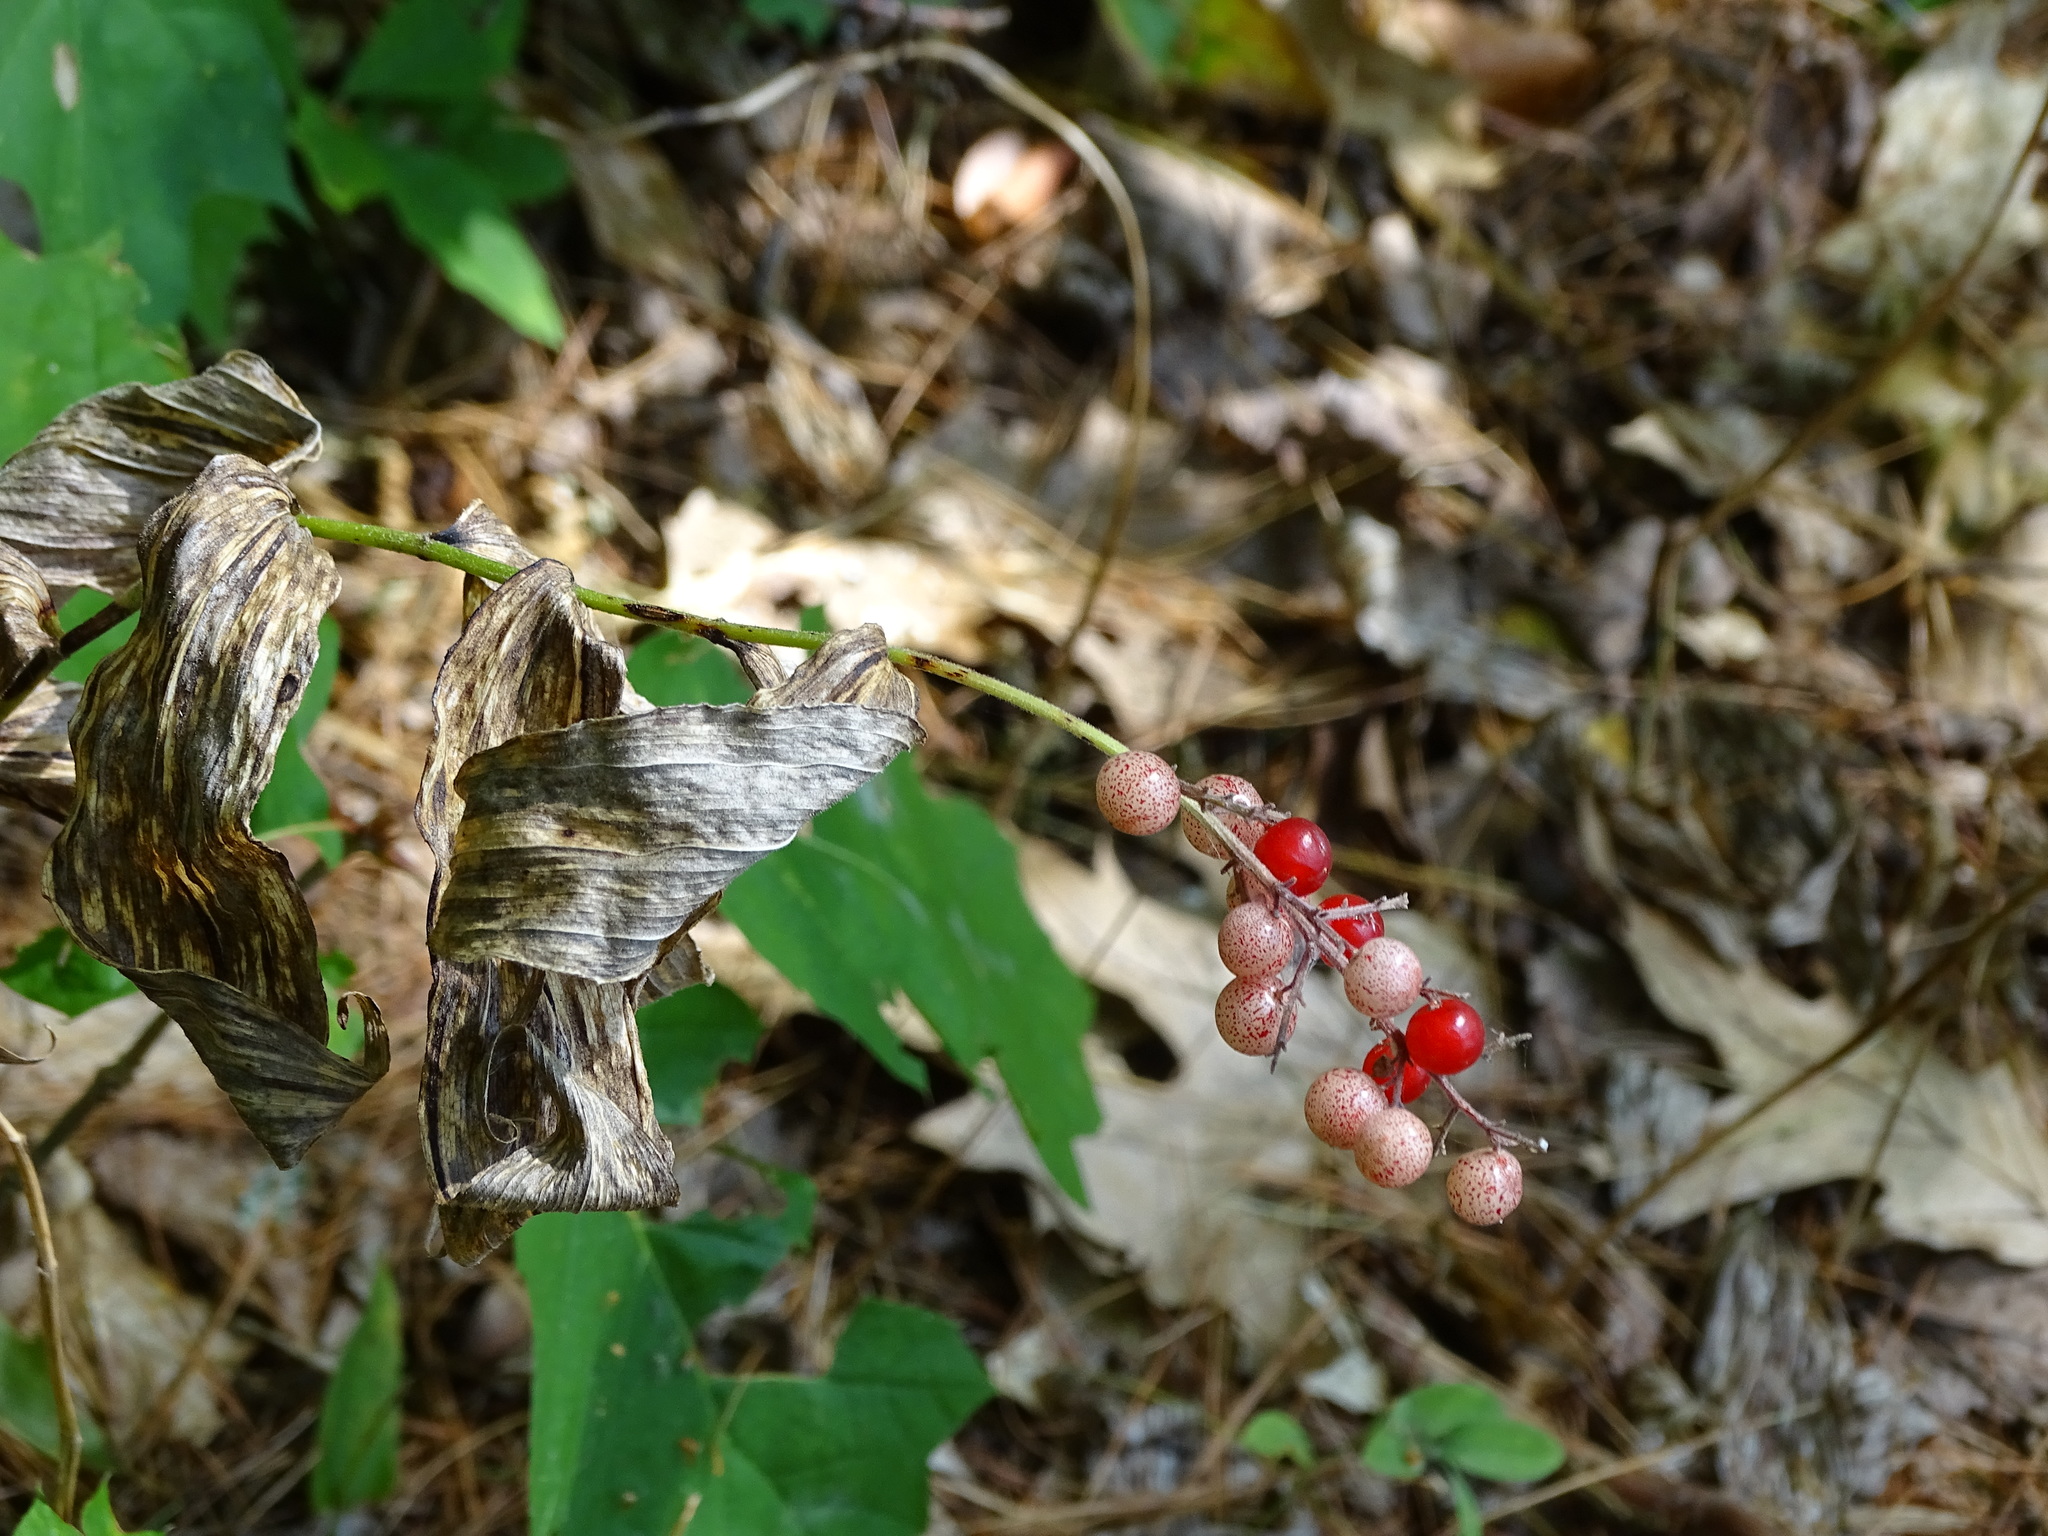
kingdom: Plantae
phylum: Tracheophyta
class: Liliopsida
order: Asparagales
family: Asparagaceae
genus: Maianthemum
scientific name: Maianthemum racemosum
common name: False spikenard
